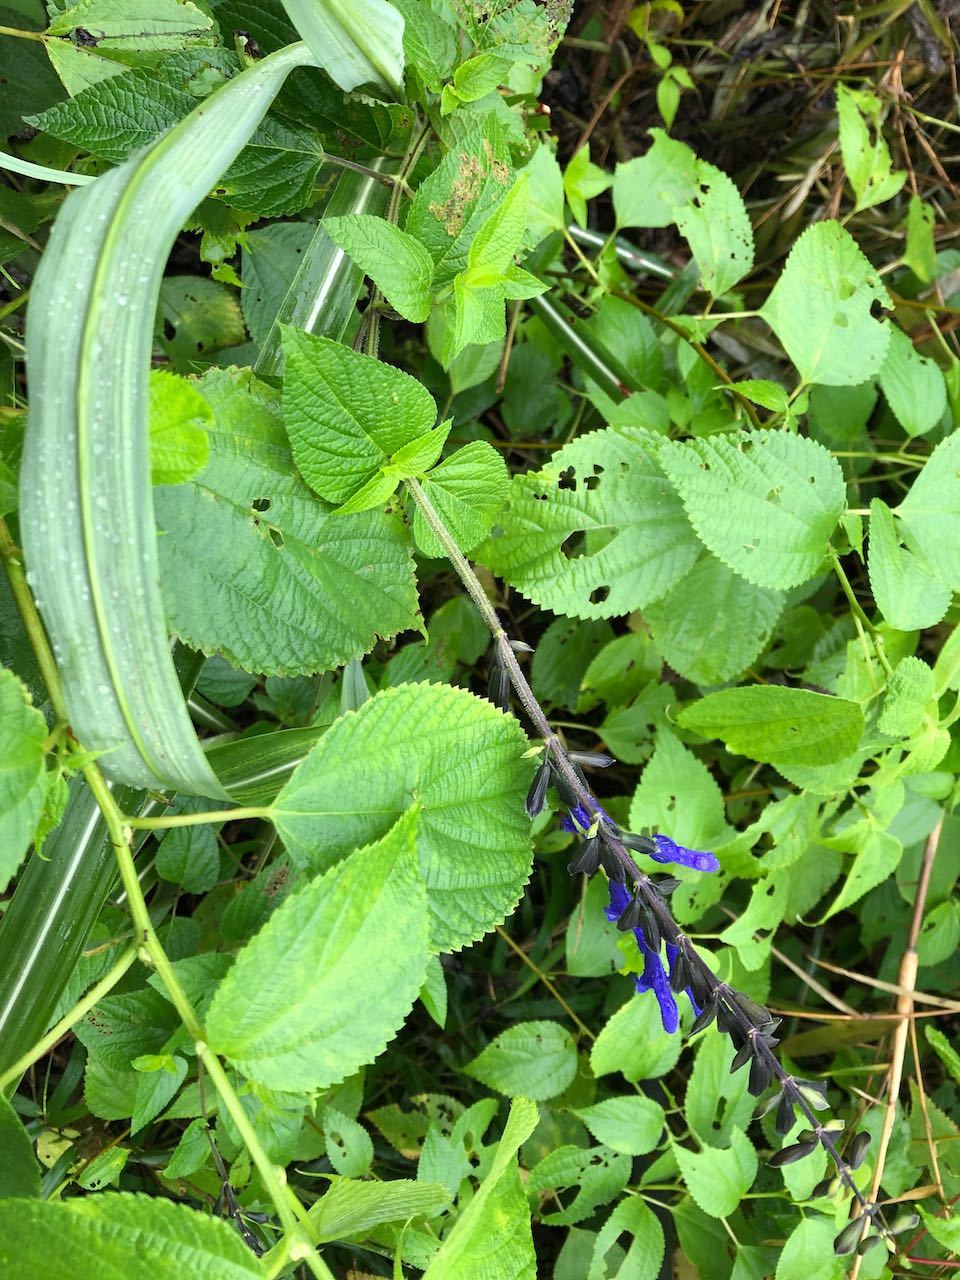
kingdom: Plantae
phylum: Tracheophyta
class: Magnoliopsida
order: Lamiales
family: Lamiaceae
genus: Salvia
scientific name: Salvia guaranitica
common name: Anise-scented sage
